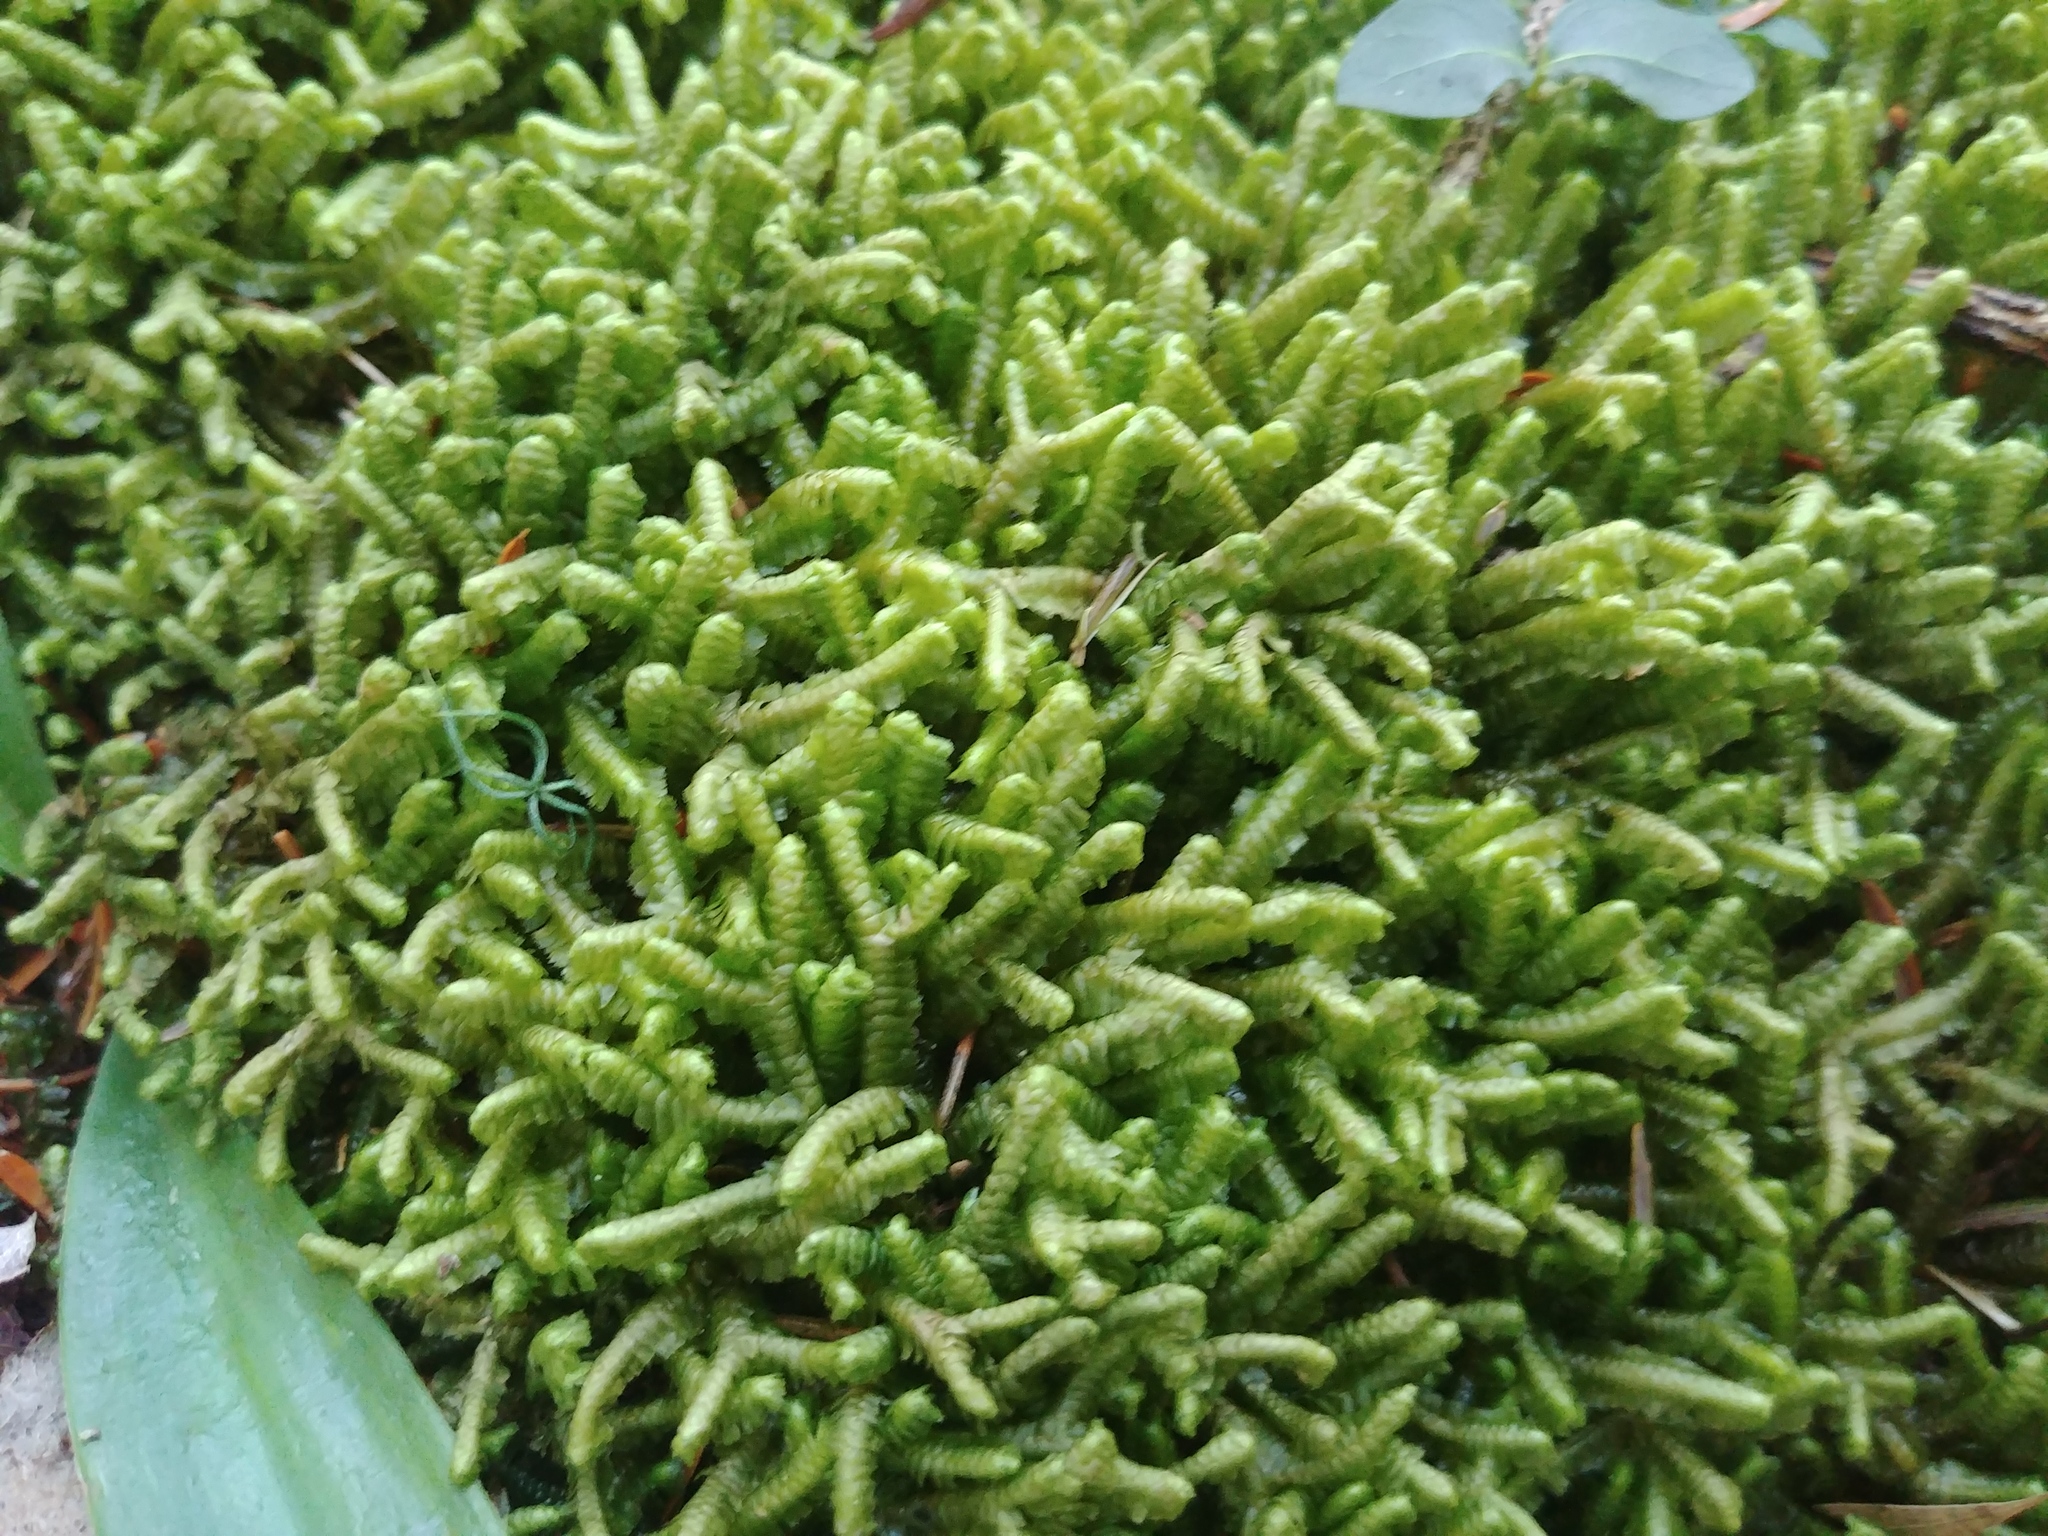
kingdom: Plantae
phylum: Marchantiophyta
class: Jungermanniopsida
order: Jungermanniales
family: Lepidoziaceae
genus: Bazzania
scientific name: Bazzania trilobata
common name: Three-lobed whipwort
